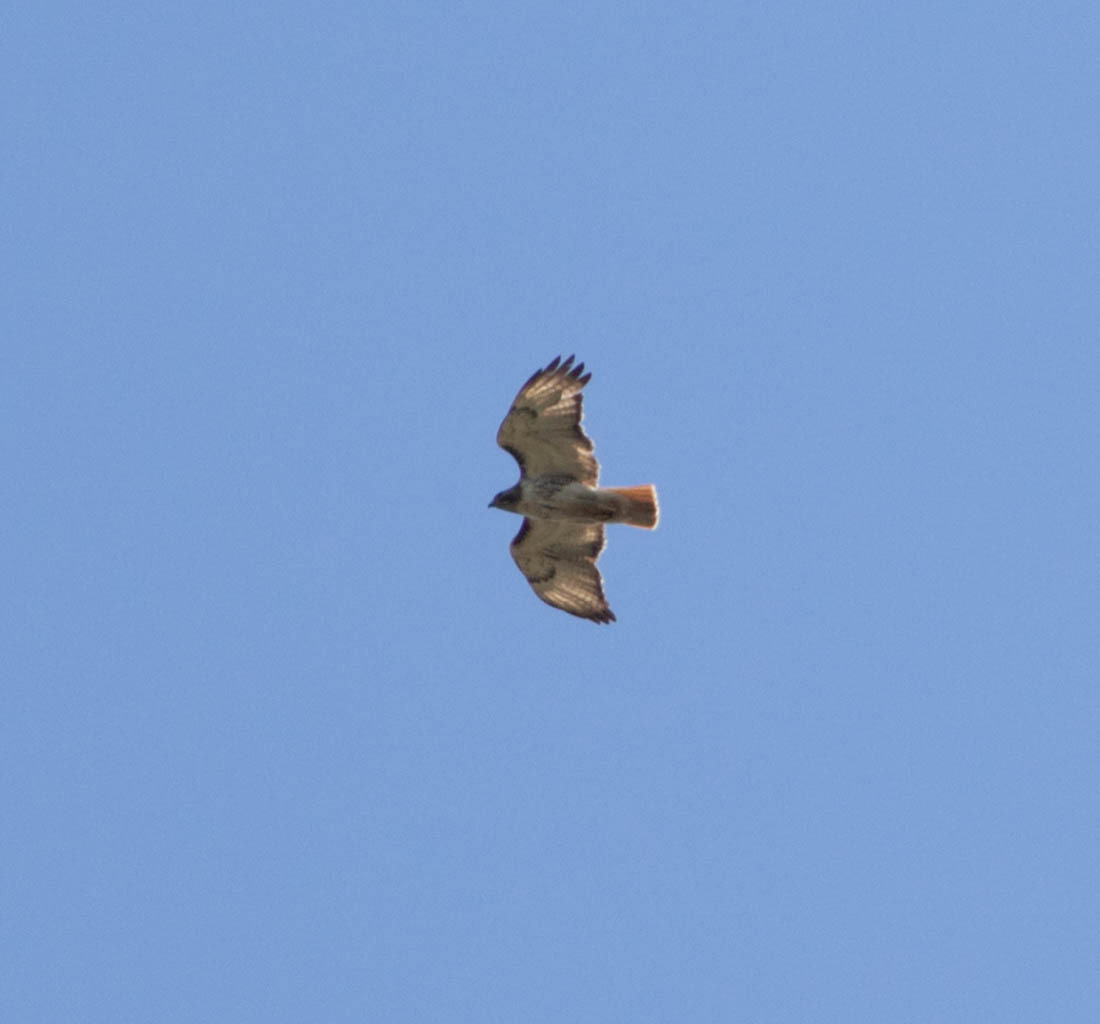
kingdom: Animalia
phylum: Chordata
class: Aves
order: Accipitriformes
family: Accipitridae
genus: Buteo
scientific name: Buteo jamaicensis
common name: Red-tailed hawk
